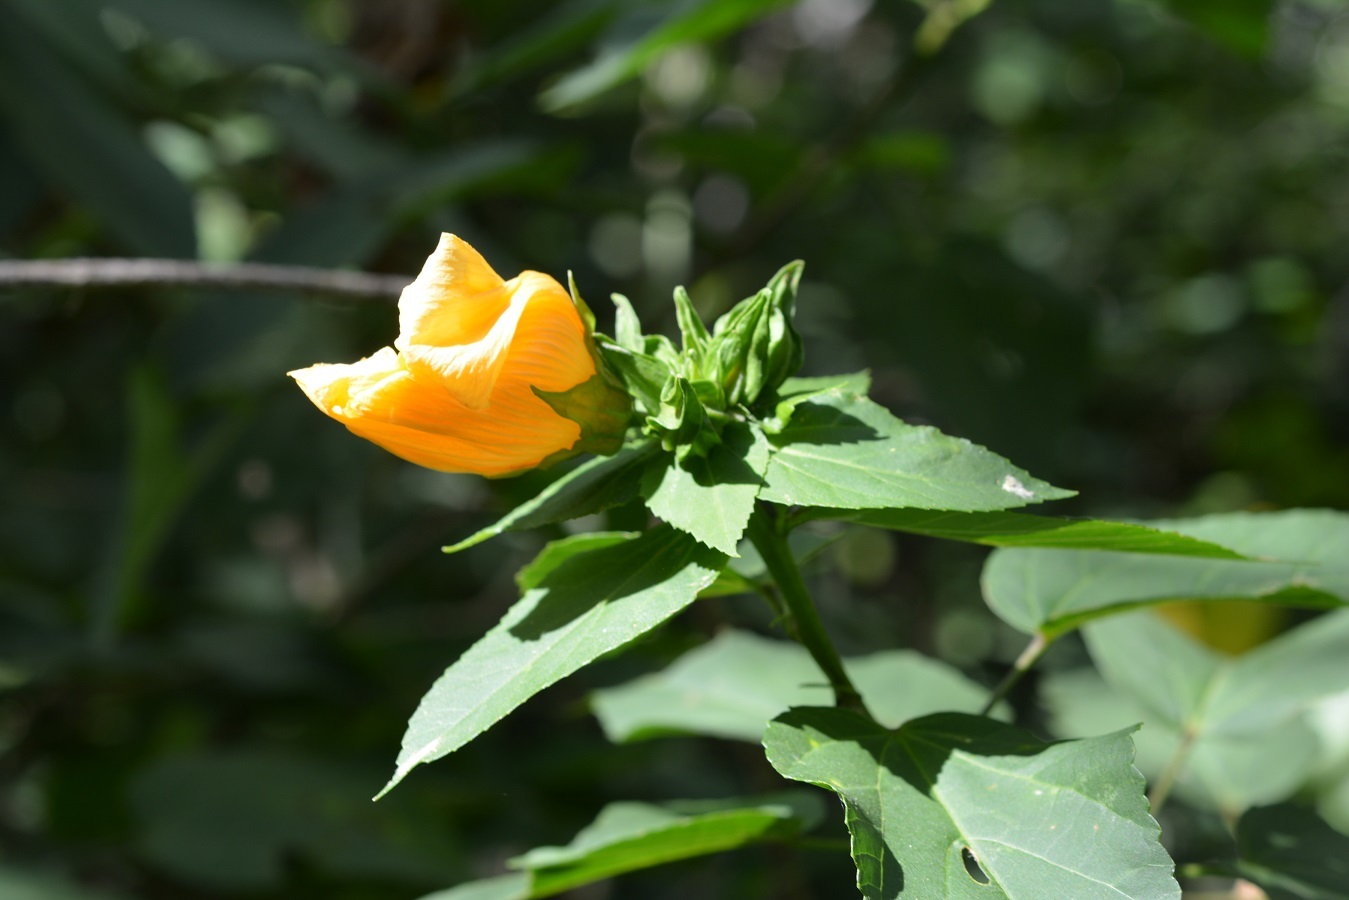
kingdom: Plantae
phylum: Tracheophyta
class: Magnoliopsida
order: Malvales
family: Malvaceae
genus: Dendrosida
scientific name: Dendrosida sharpiana
